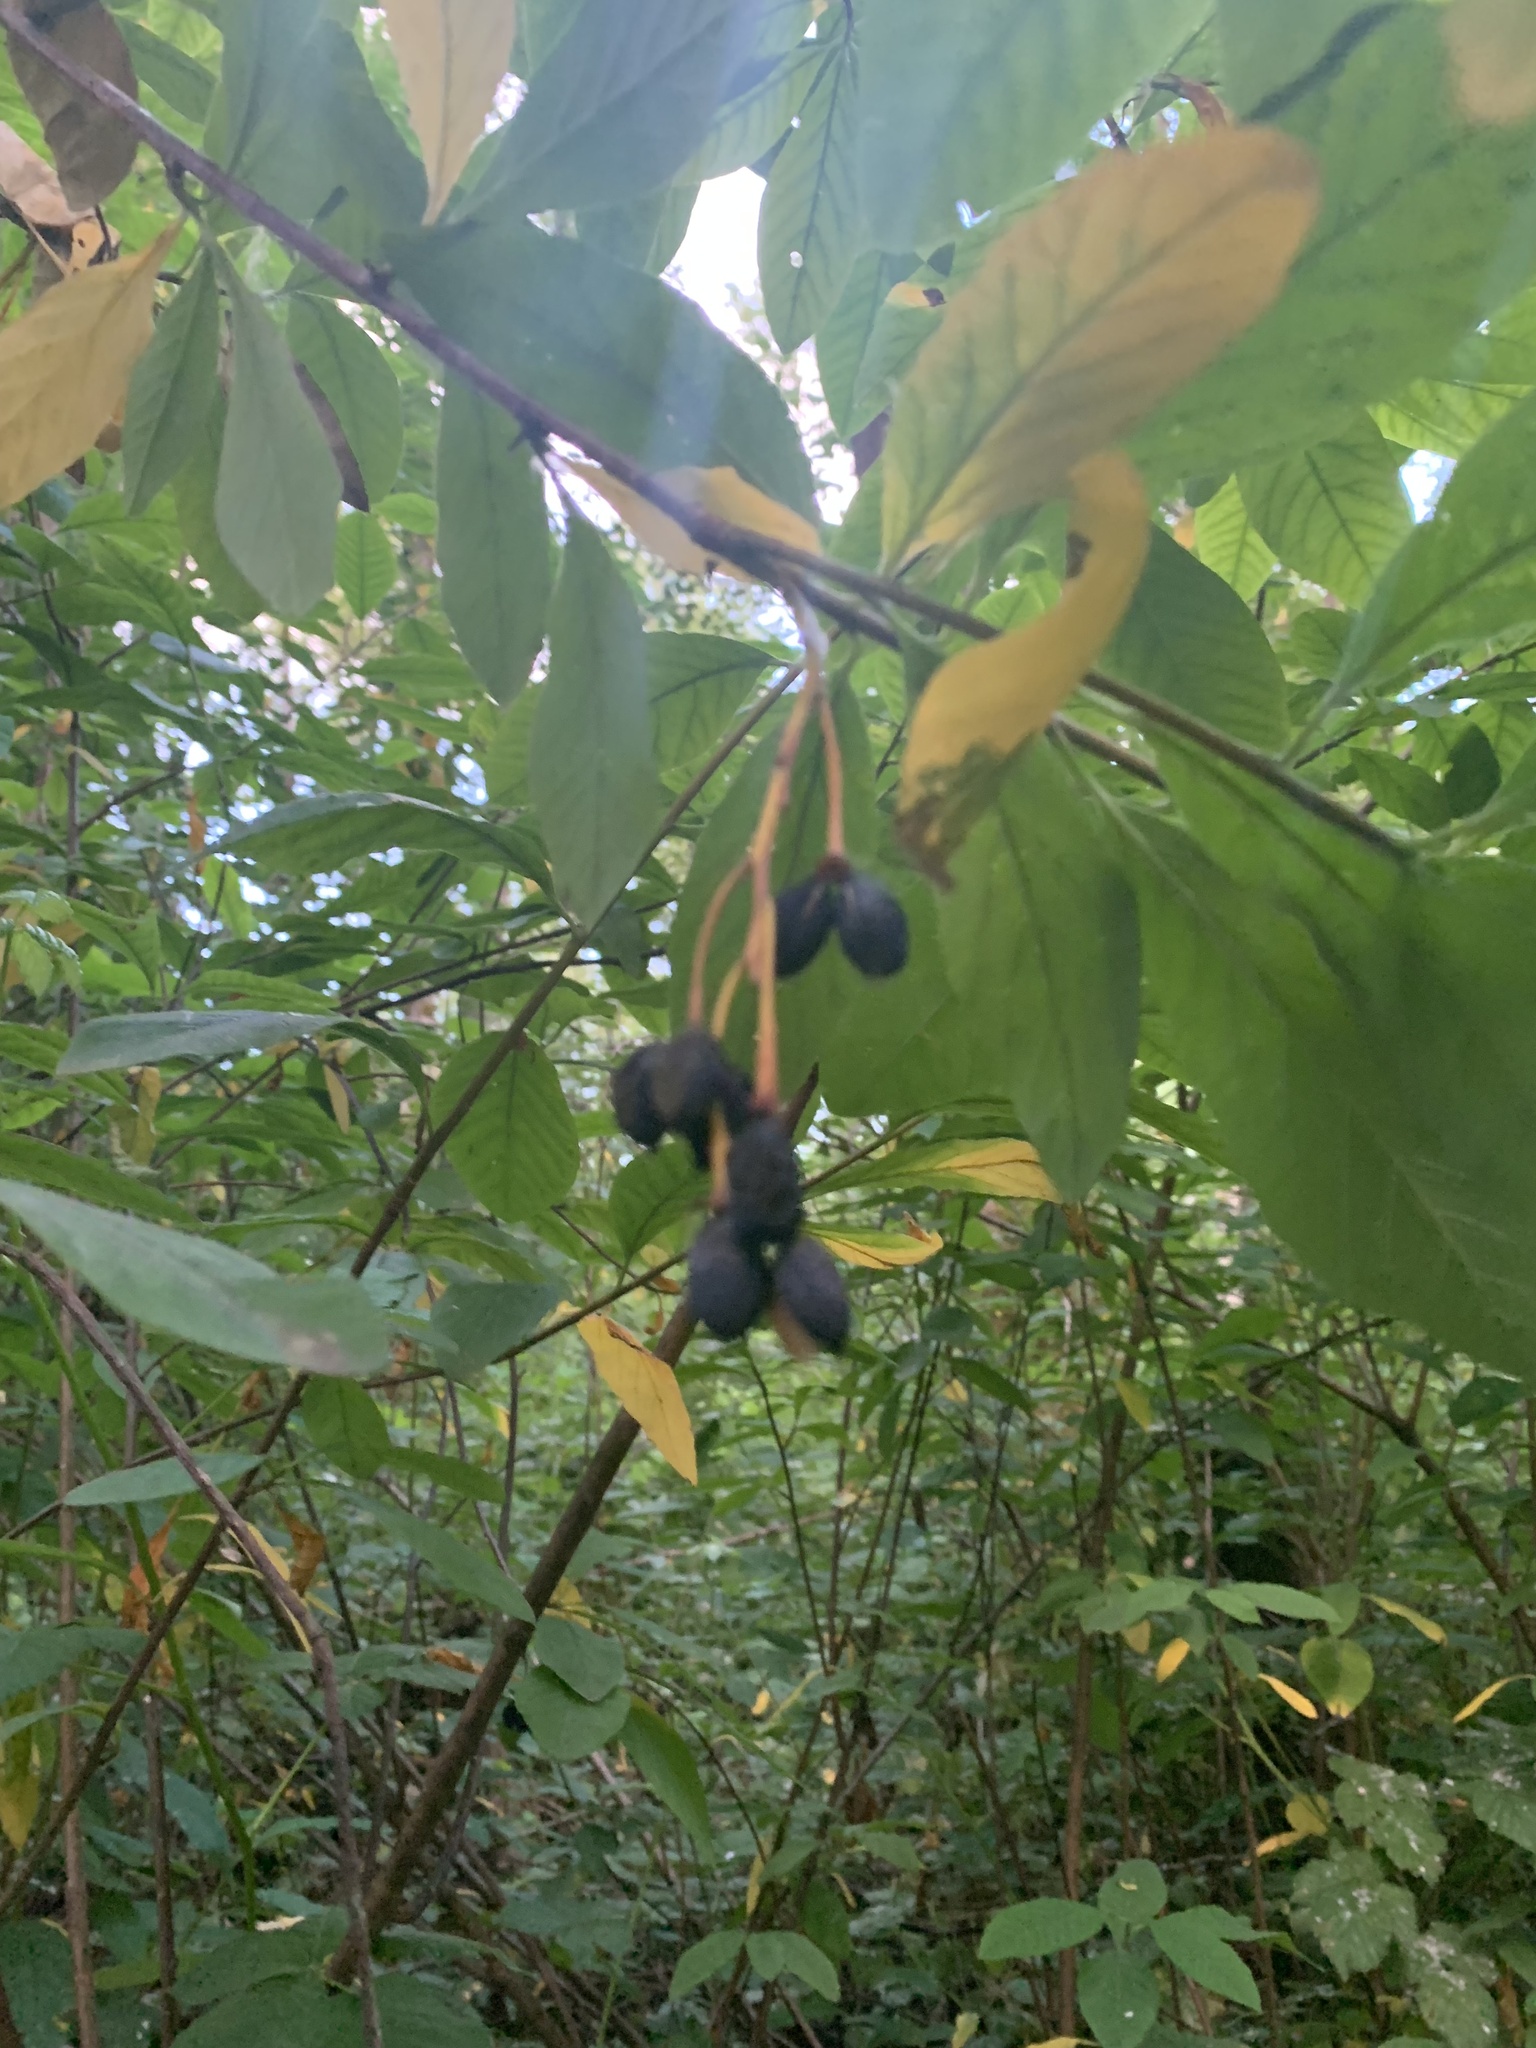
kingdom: Plantae
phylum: Tracheophyta
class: Magnoliopsida
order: Rosales
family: Rosaceae
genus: Oemleria
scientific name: Oemleria cerasiformis
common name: Osoberry
